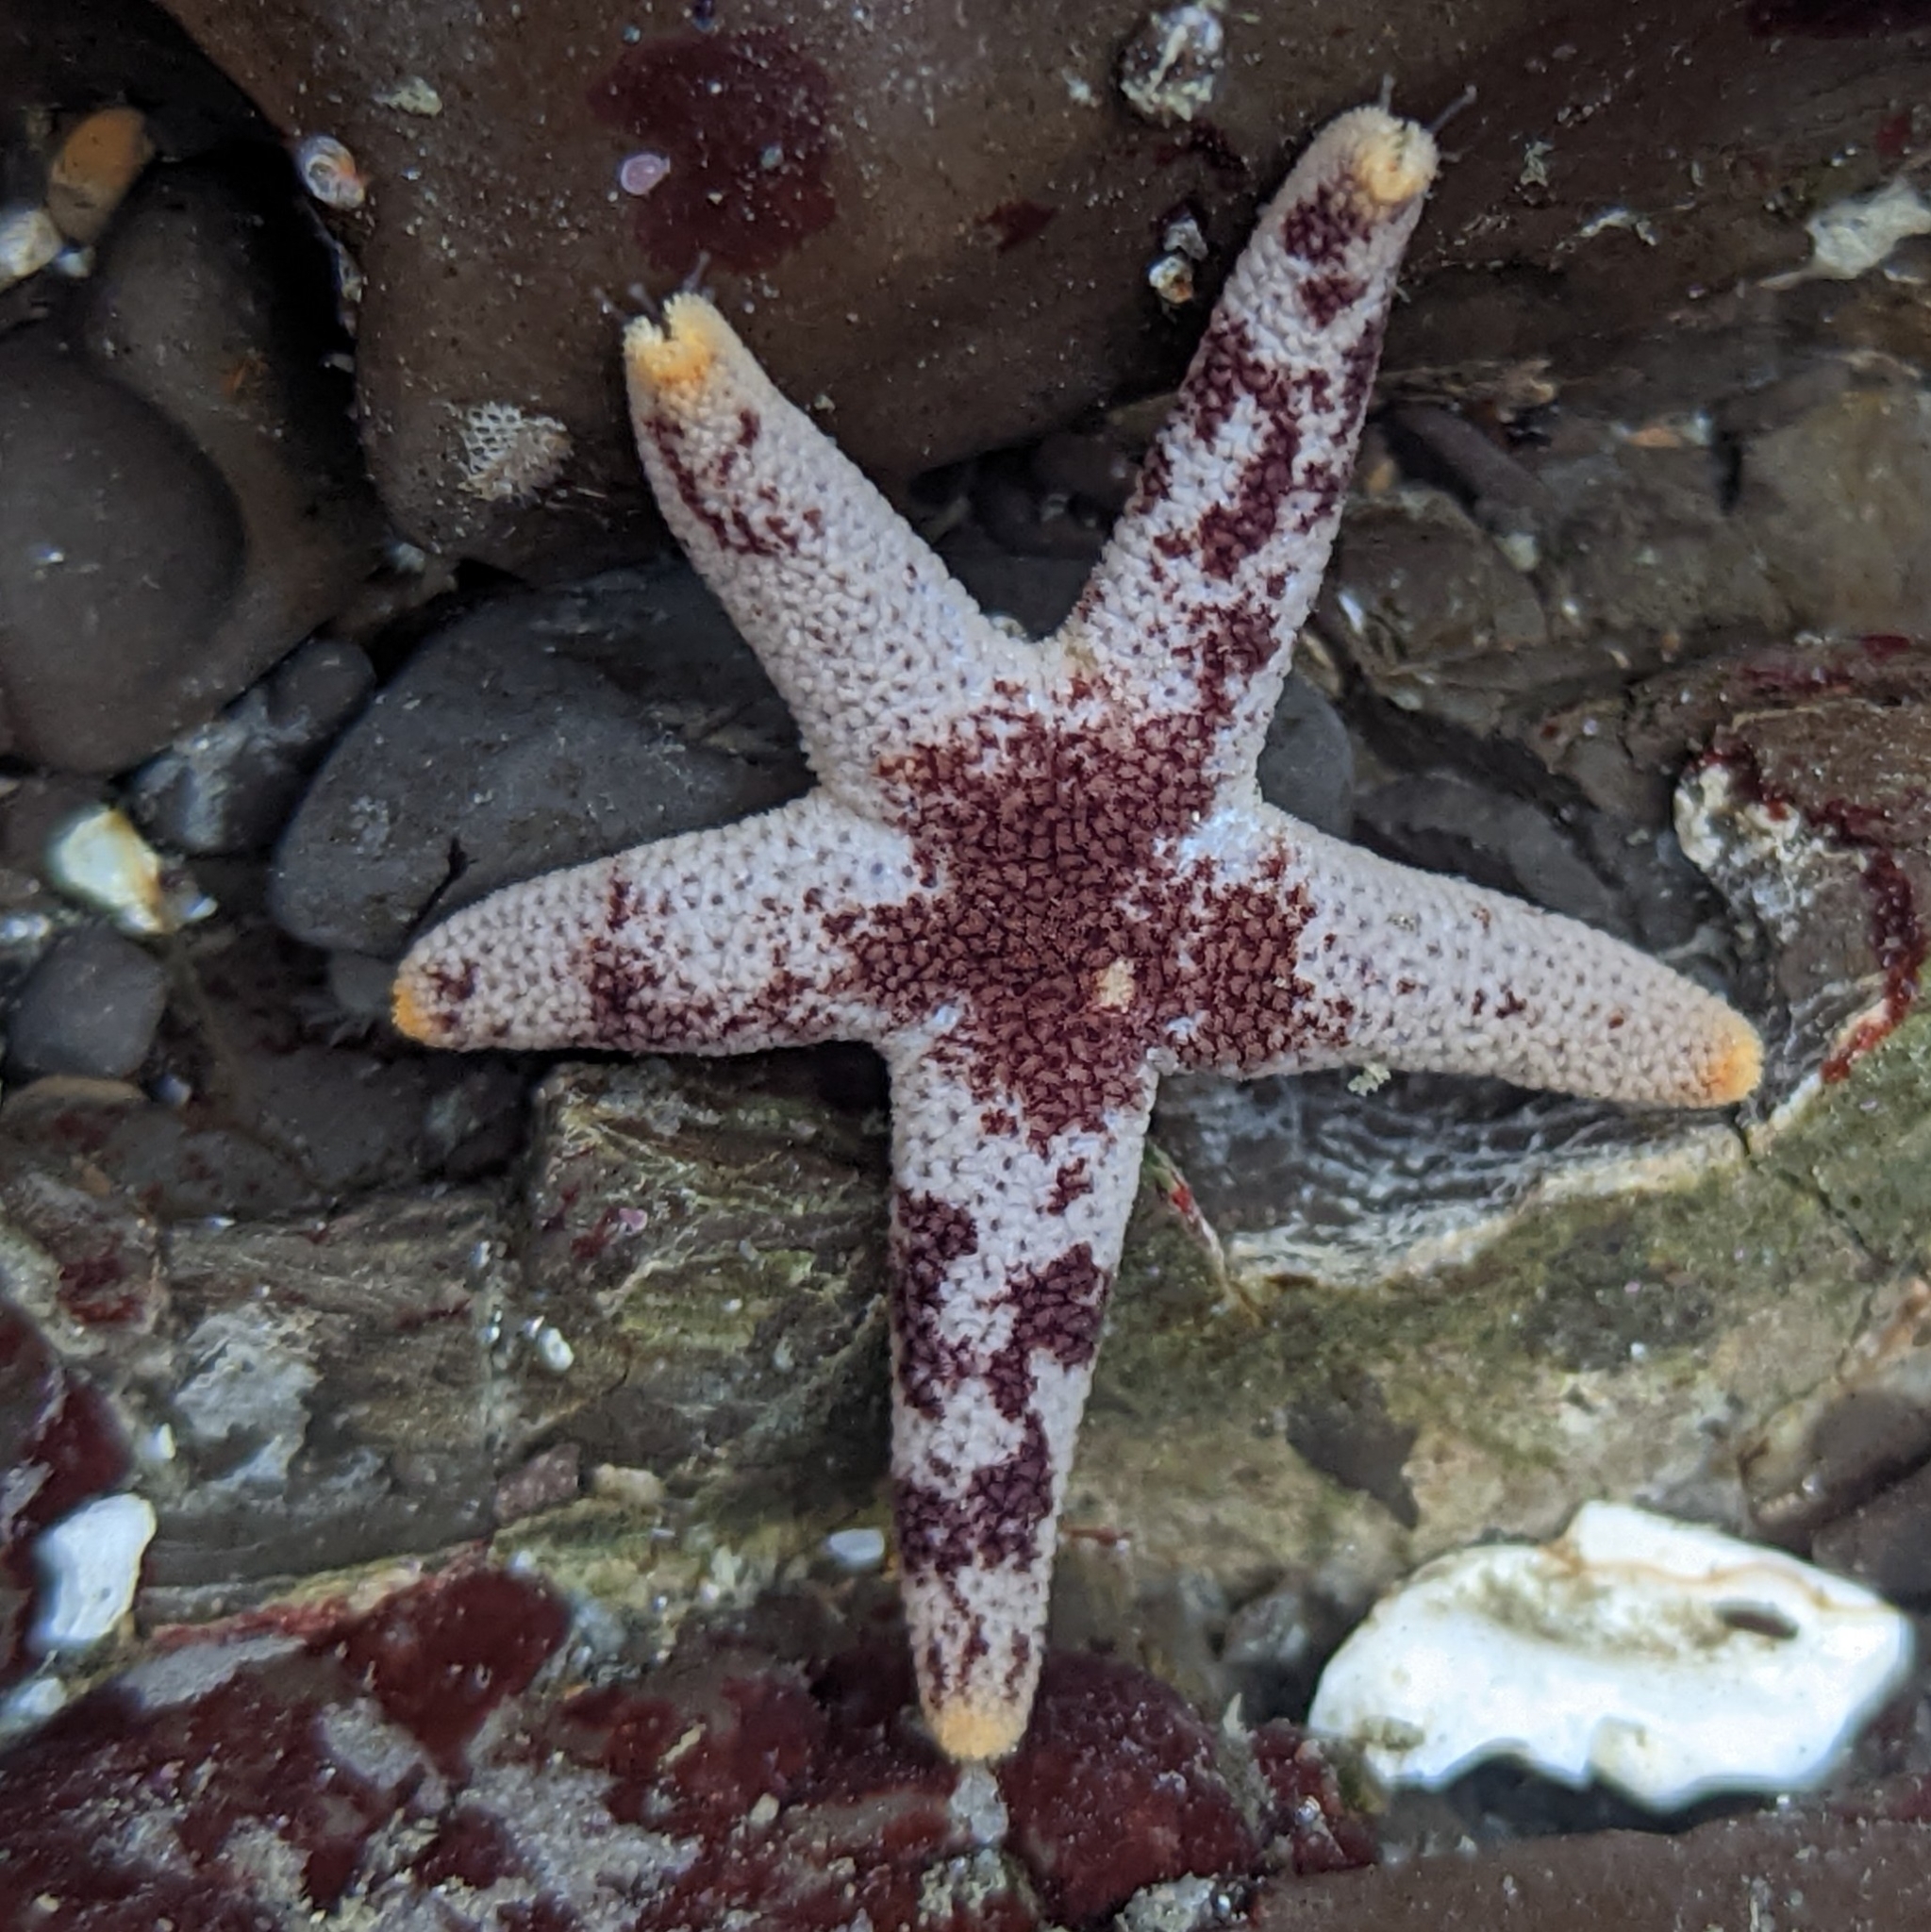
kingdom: Animalia
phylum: Echinodermata
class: Asteroidea
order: Spinulosida
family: Echinasteridae
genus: Henricia
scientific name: Henricia pumila
